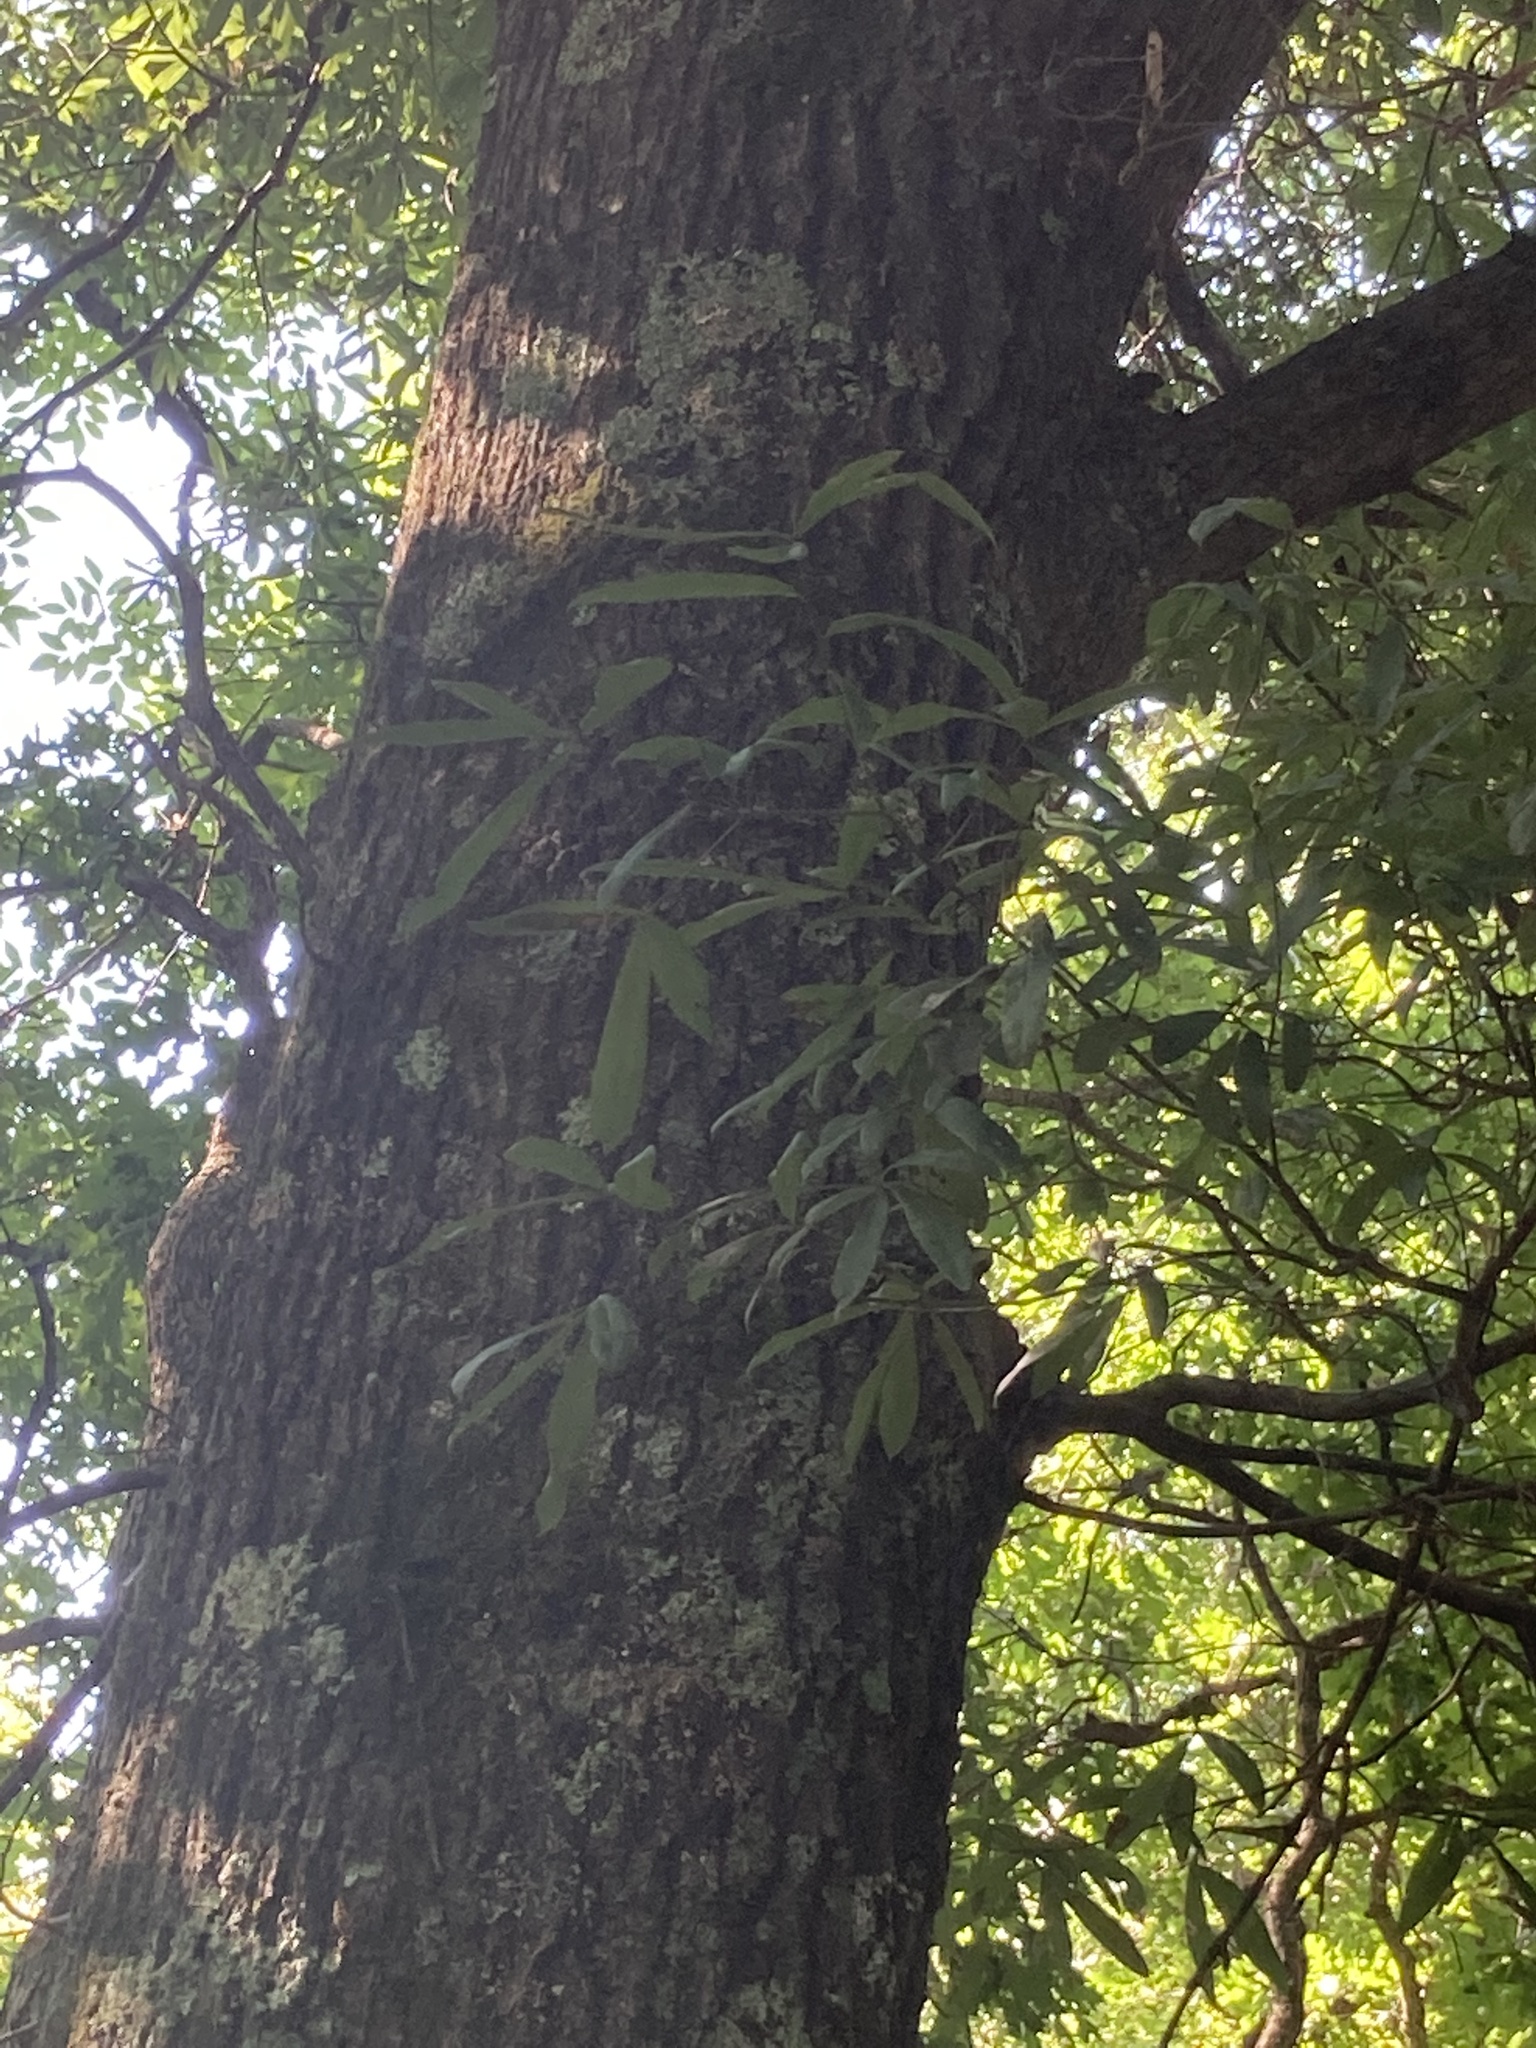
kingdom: Plantae
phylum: Tracheophyta
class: Magnoliopsida
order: Fagales
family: Fagaceae
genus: Quercus
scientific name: Quercus phellos
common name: Willow oak
